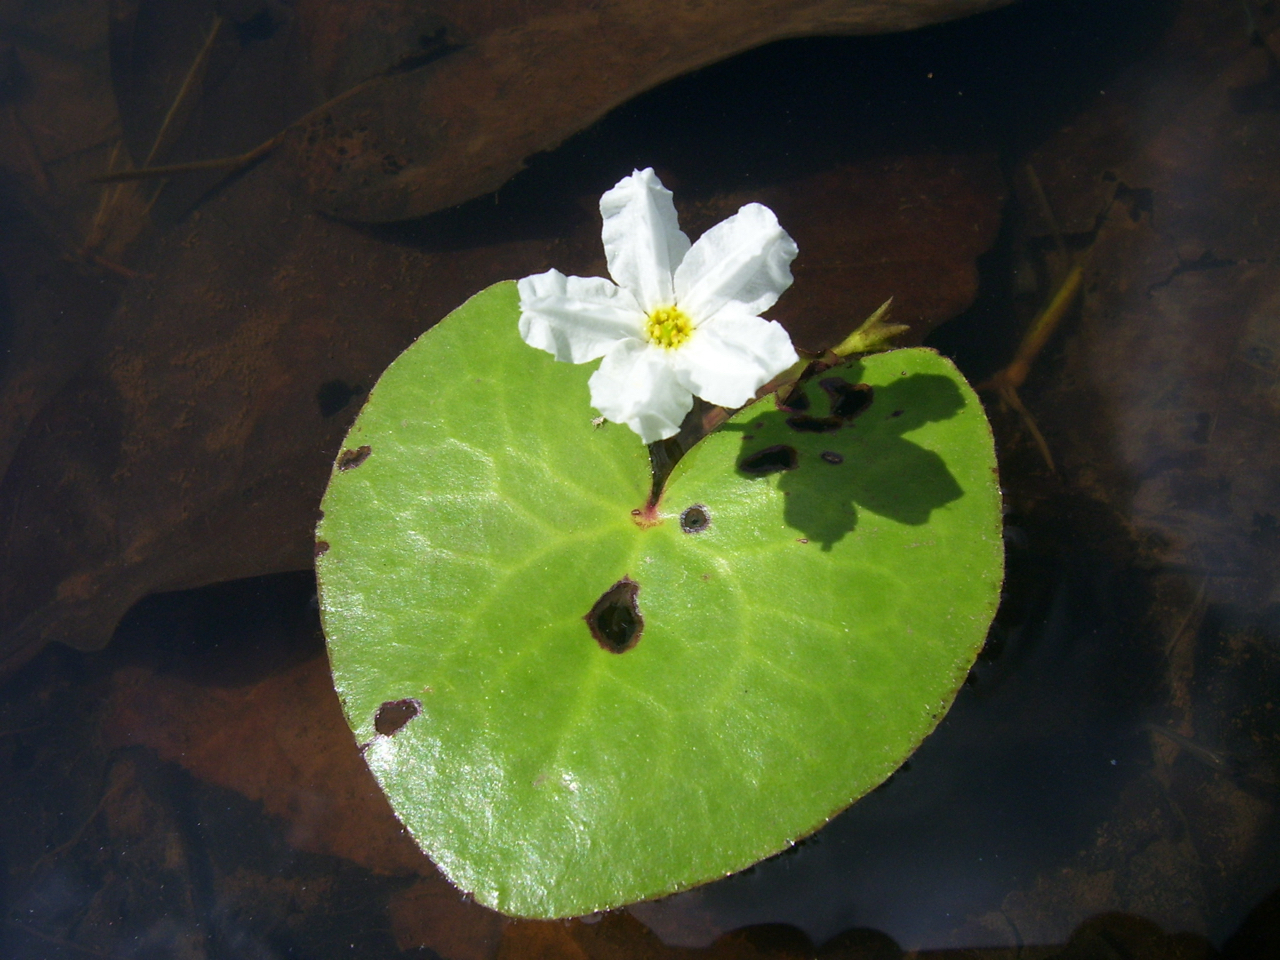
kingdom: Plantae
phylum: Tracheophyta
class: Magnoliopsida
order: Asterales
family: Menyanthaceae
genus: Nymphoides
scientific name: Nymphoides hydrophylla
